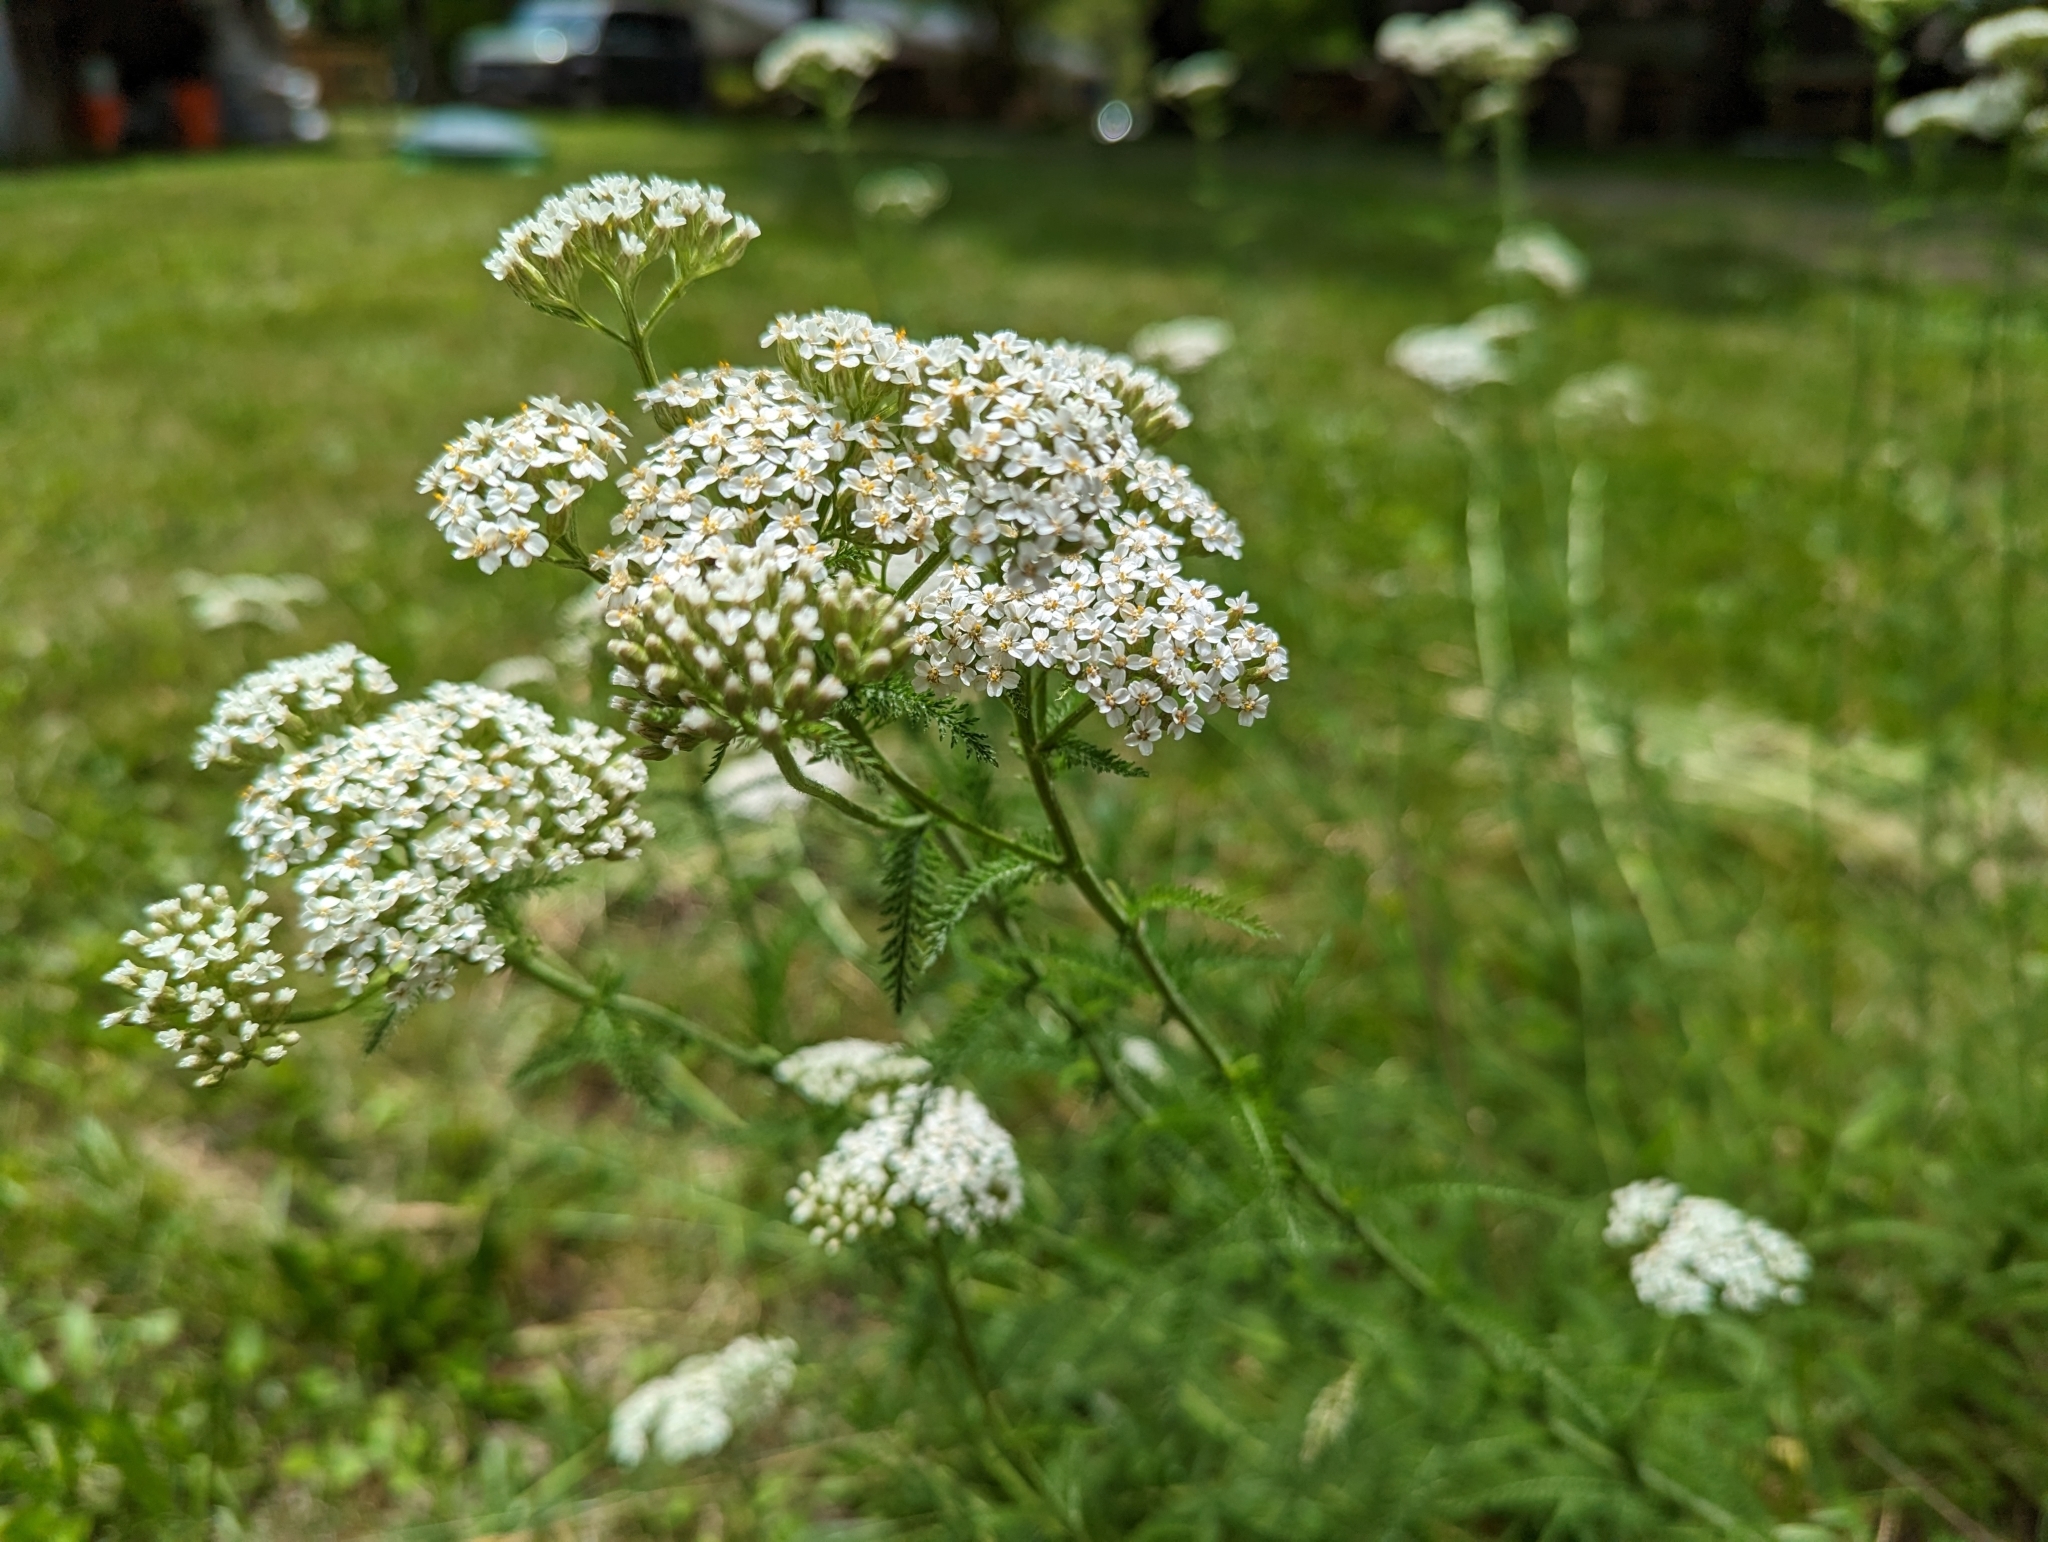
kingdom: Plantae
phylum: Tracheophyta
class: Magnoliopsida
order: Asterales
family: Asteraceae
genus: Achillea
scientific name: Achillea millefolium
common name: Yarrow
